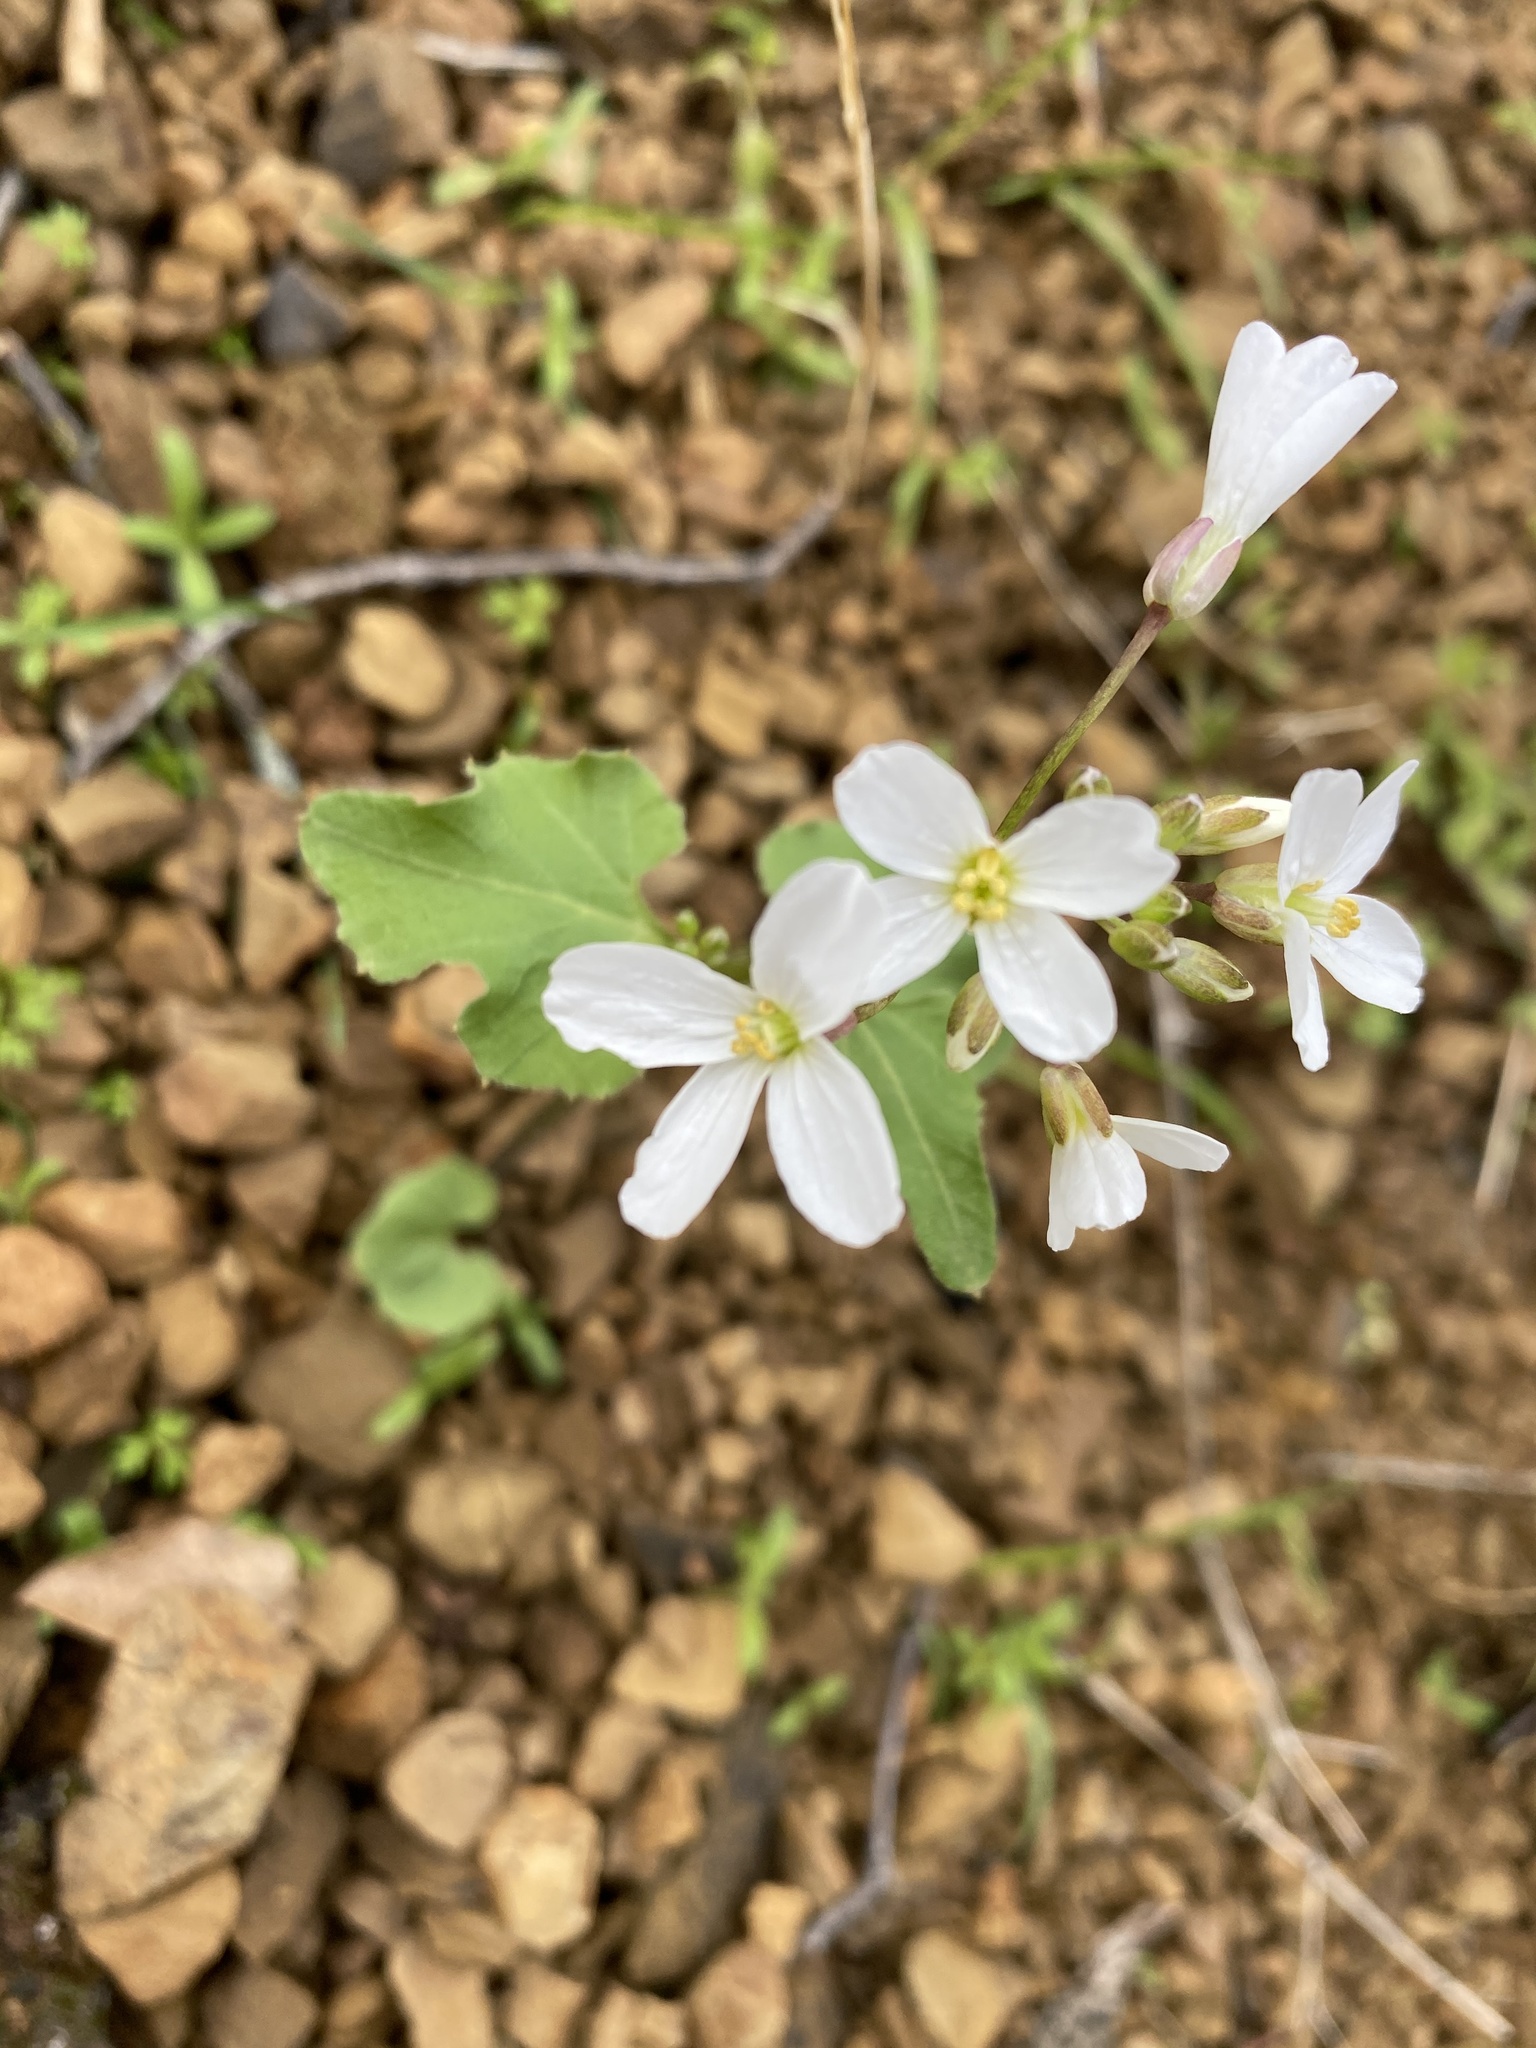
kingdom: Plantae
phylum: Tracheophyta
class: Magnoliopsida
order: Brassicales
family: Brassicaceae
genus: Cardamine
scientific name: Cardamine californica
